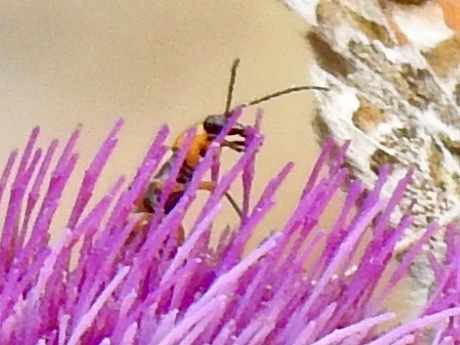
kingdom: Animalia
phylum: Arthropoda
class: Insecta
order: Coleoptera
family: Chrysomelidae
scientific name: Chrysomelidae
